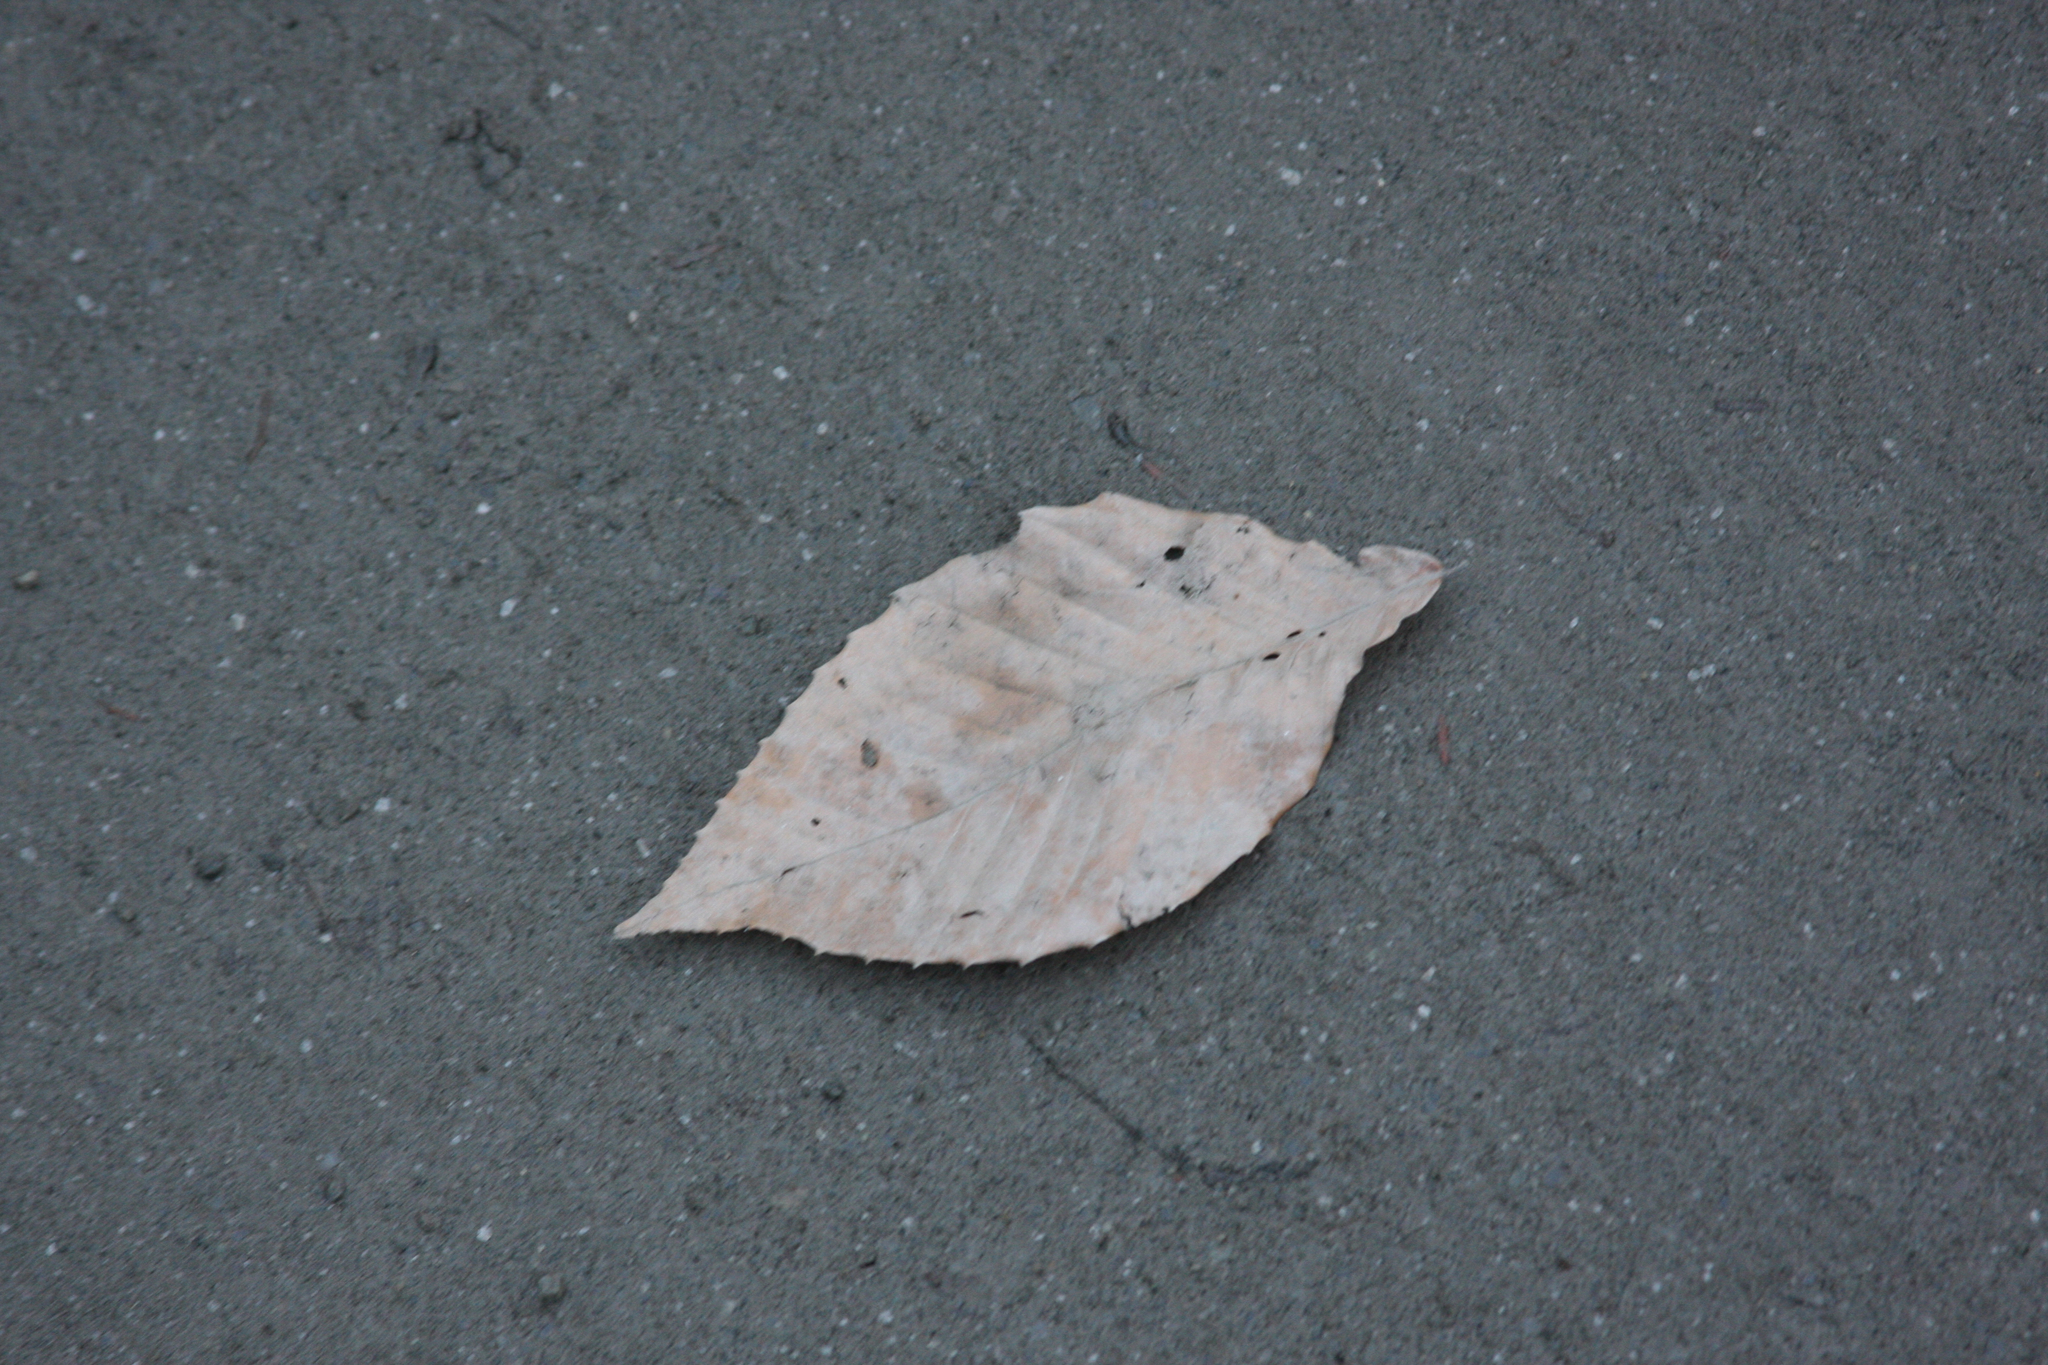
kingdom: Plantae
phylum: Tracheophyta
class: Magnoliopsida
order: Fagales
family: Fagaceae
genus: Fagus
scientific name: Fagus grandifolia
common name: American beech
